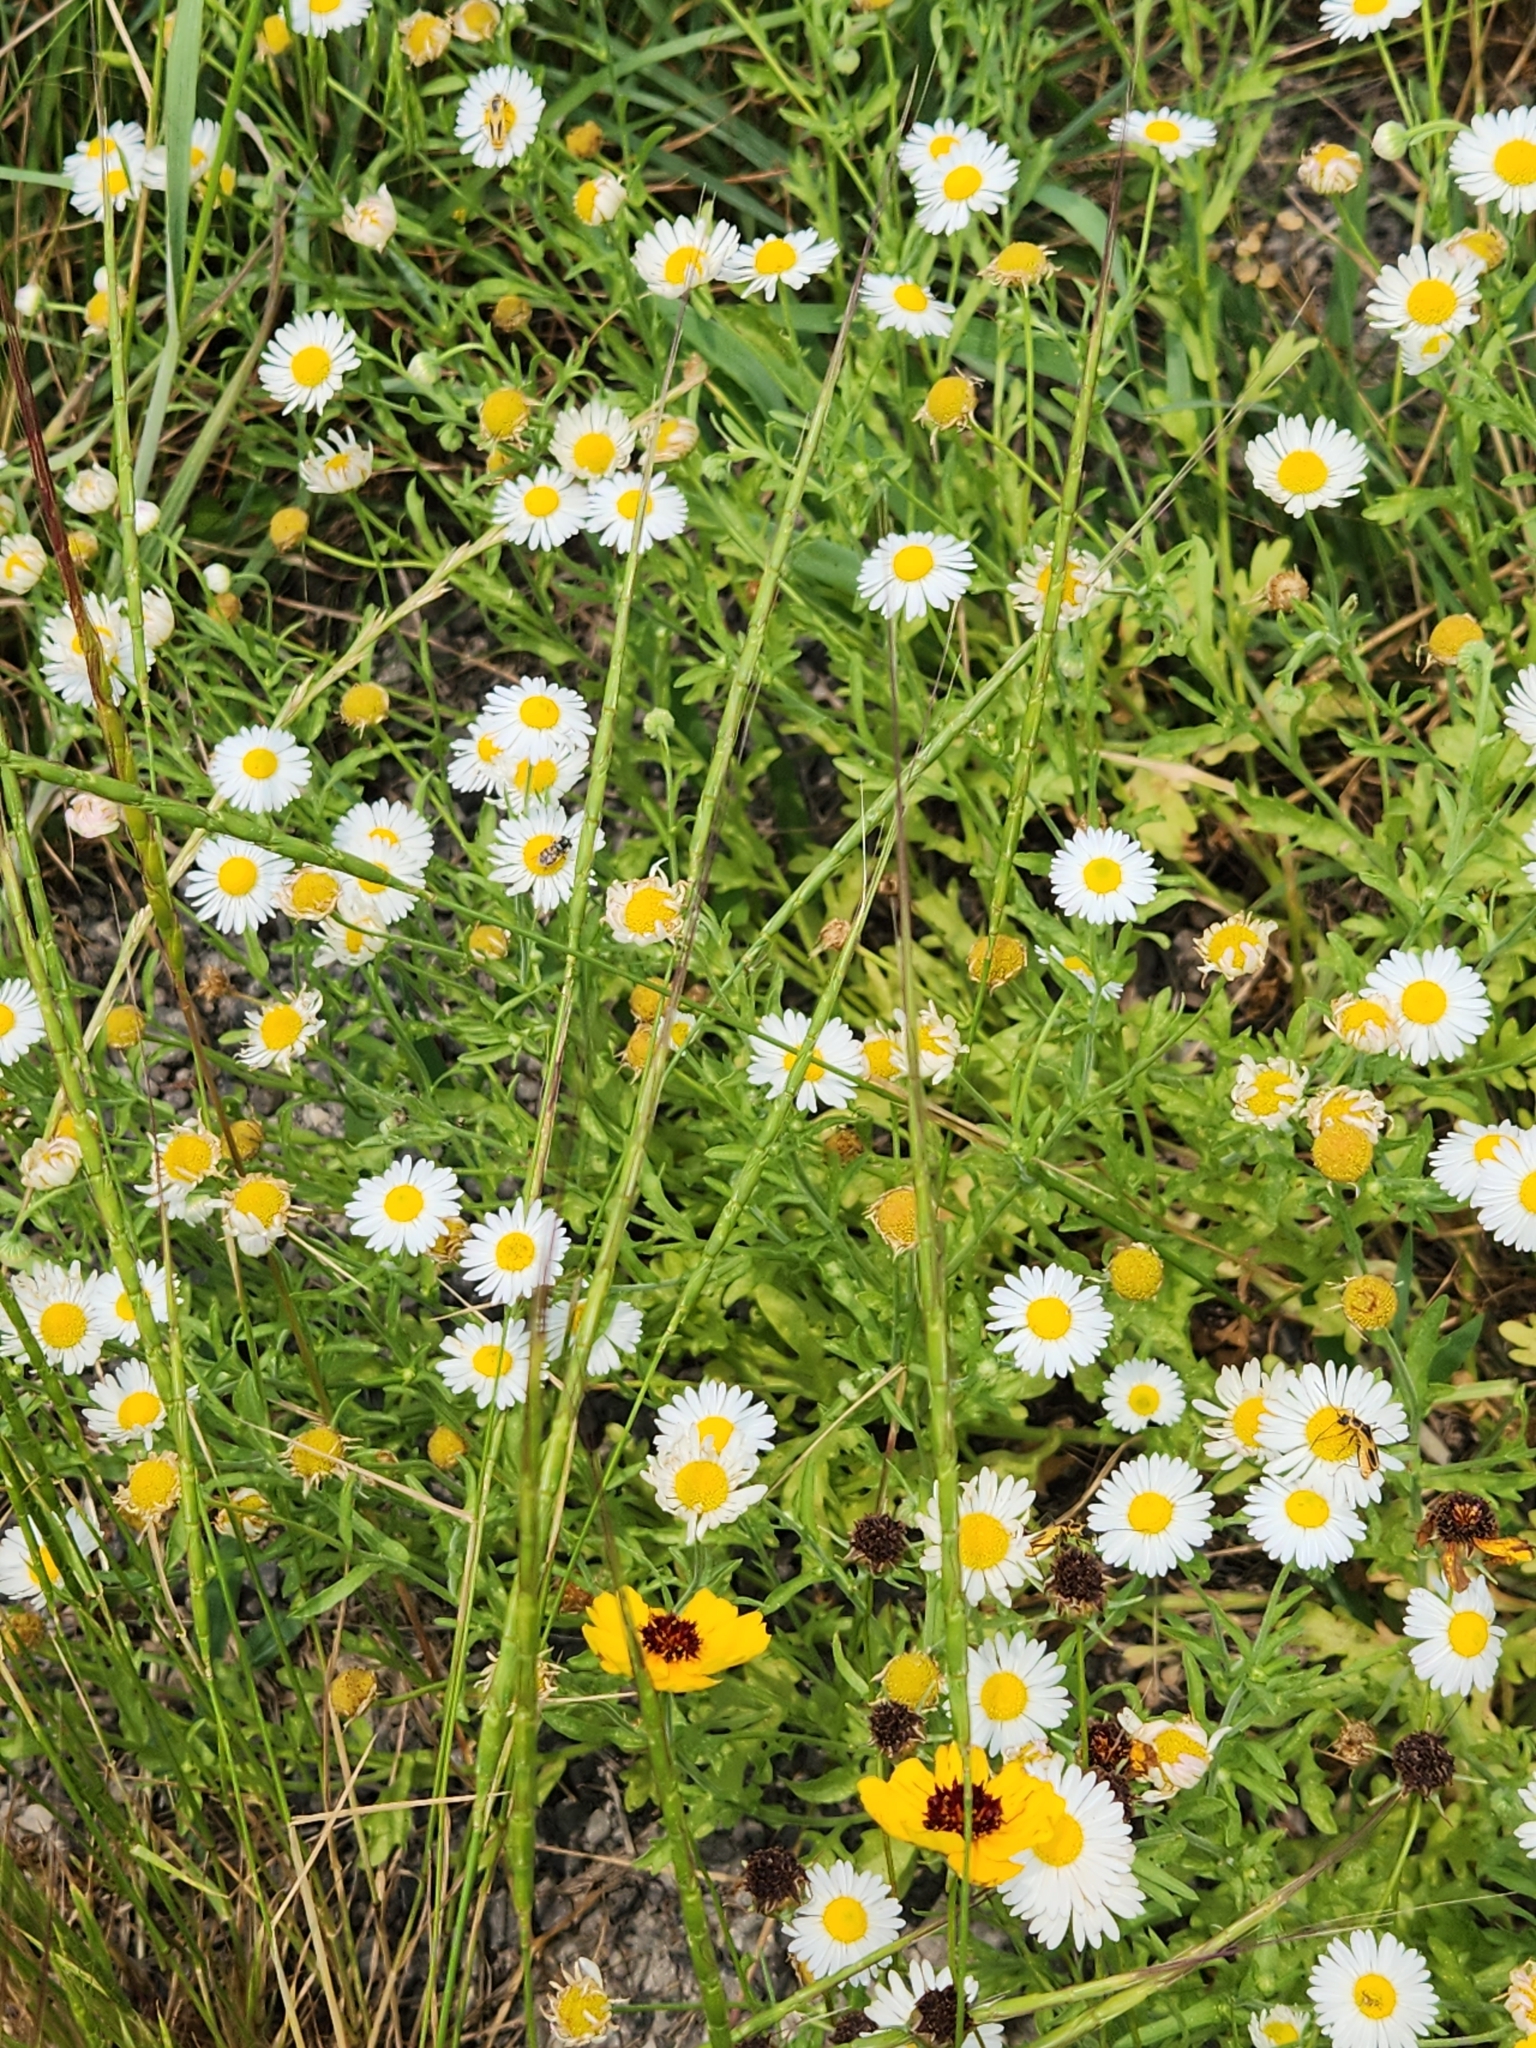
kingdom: Plantae
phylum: Tracheophyta
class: Magnoliopsida
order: Asterales
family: Asteraceae
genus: Aphanostephus
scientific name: Aphanostephus ramosissimus
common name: Plains lazy daisy
